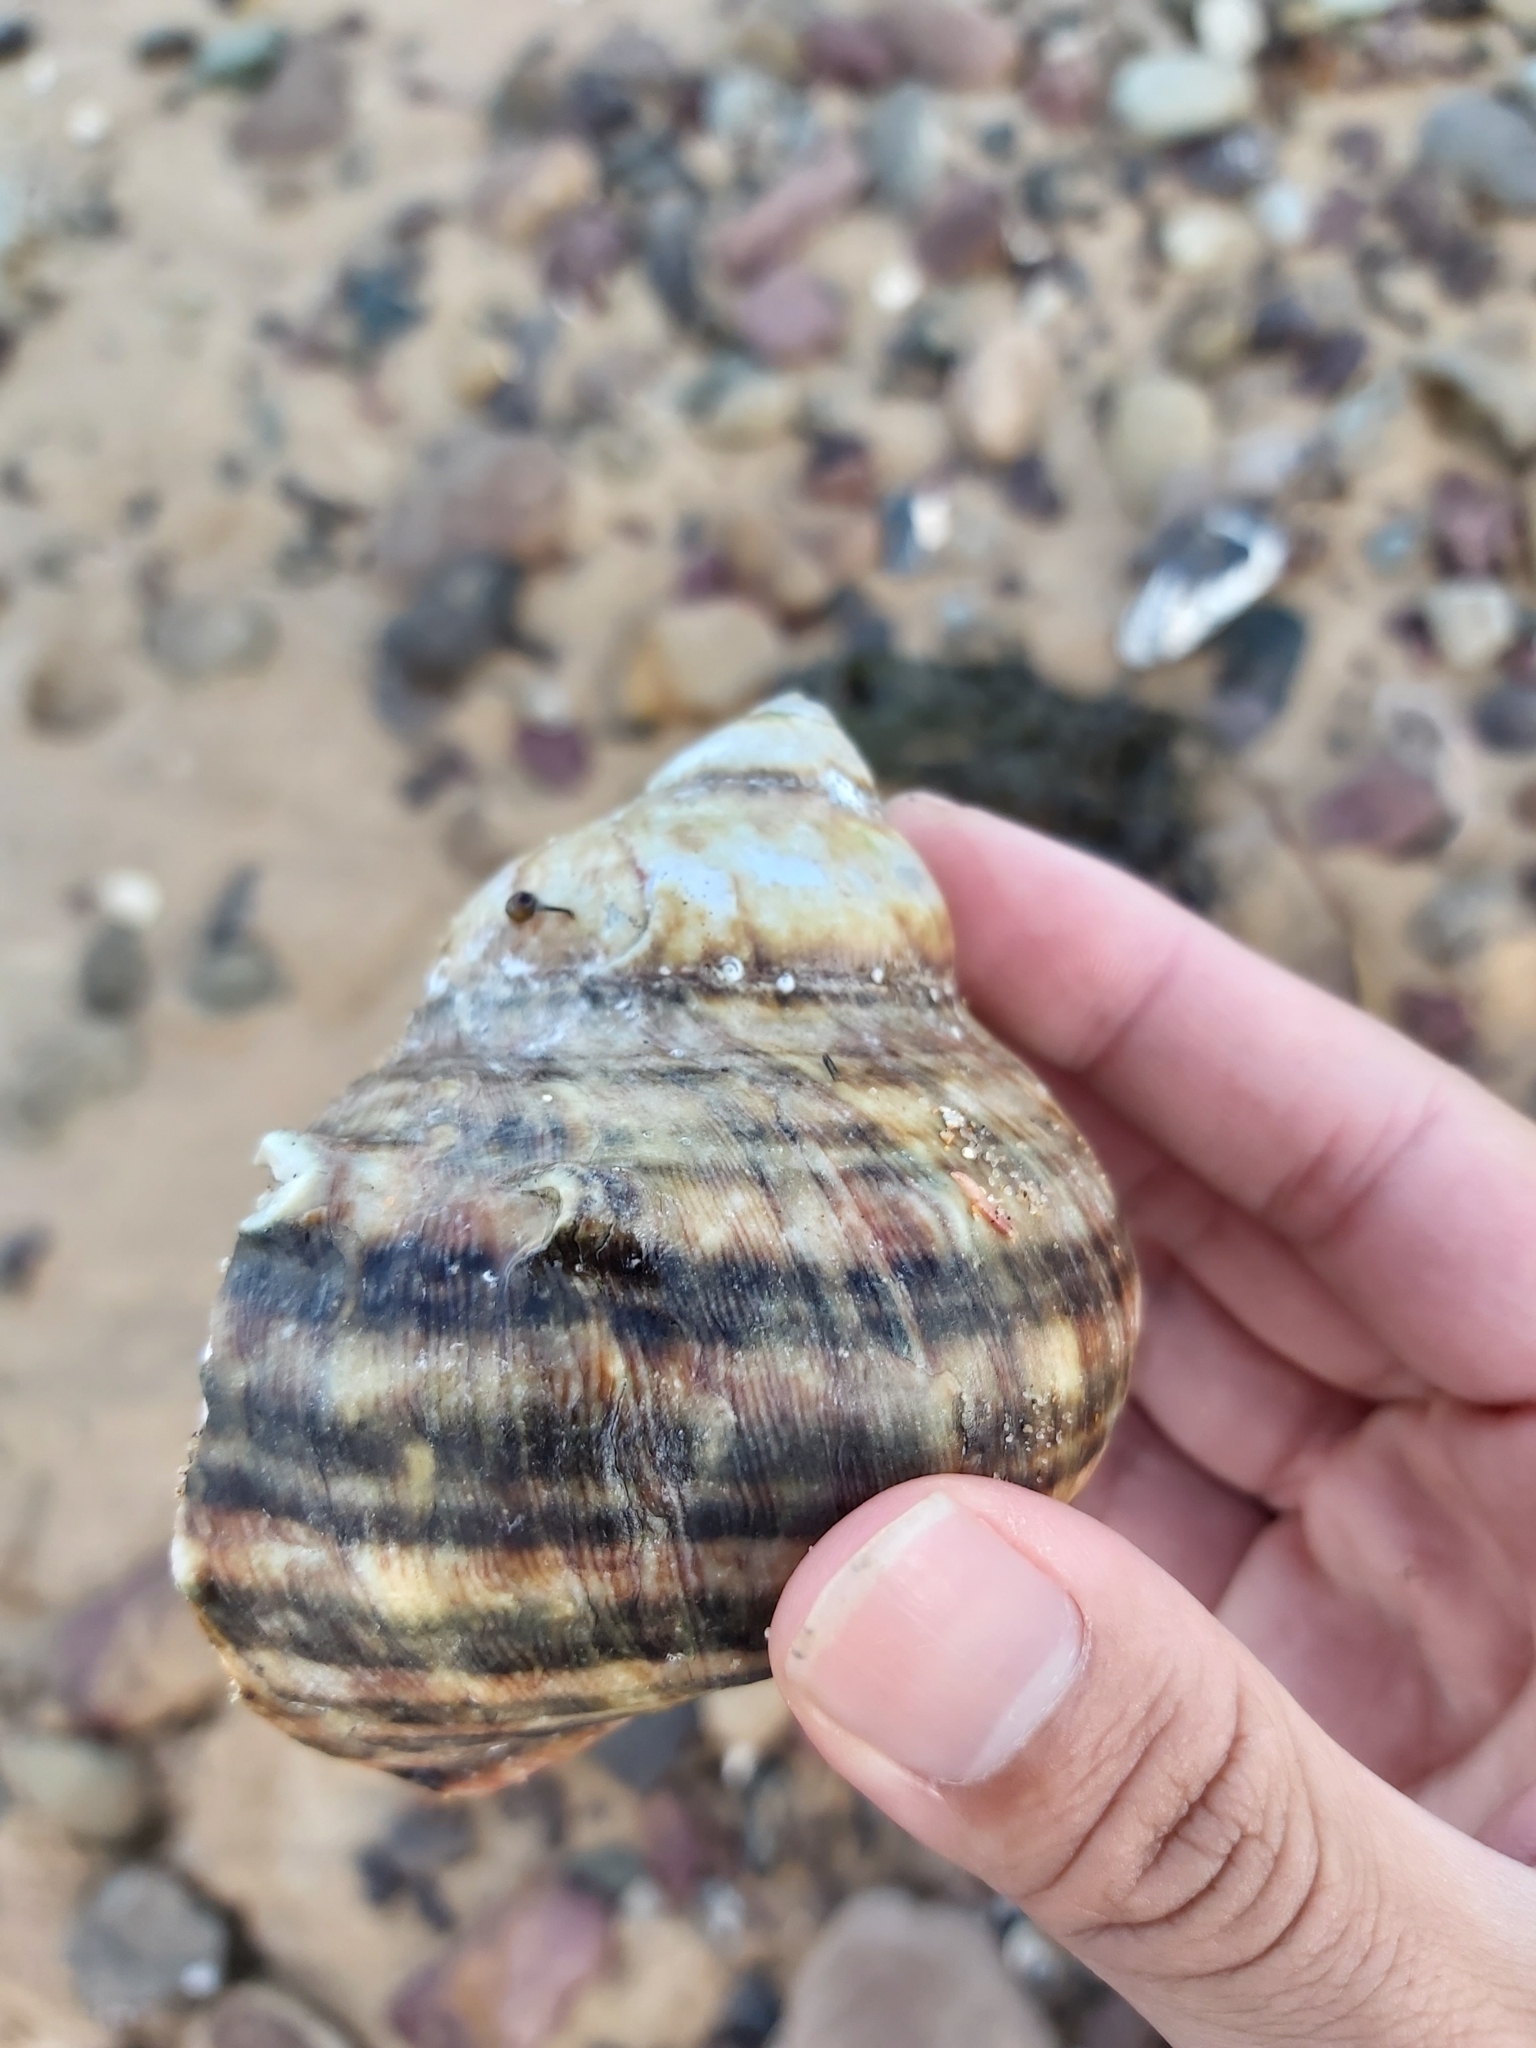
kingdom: Animalia
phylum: Mollusca
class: Gastropoda
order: Trochida
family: Turbinidae
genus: Turbo
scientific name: Turbo militaris
